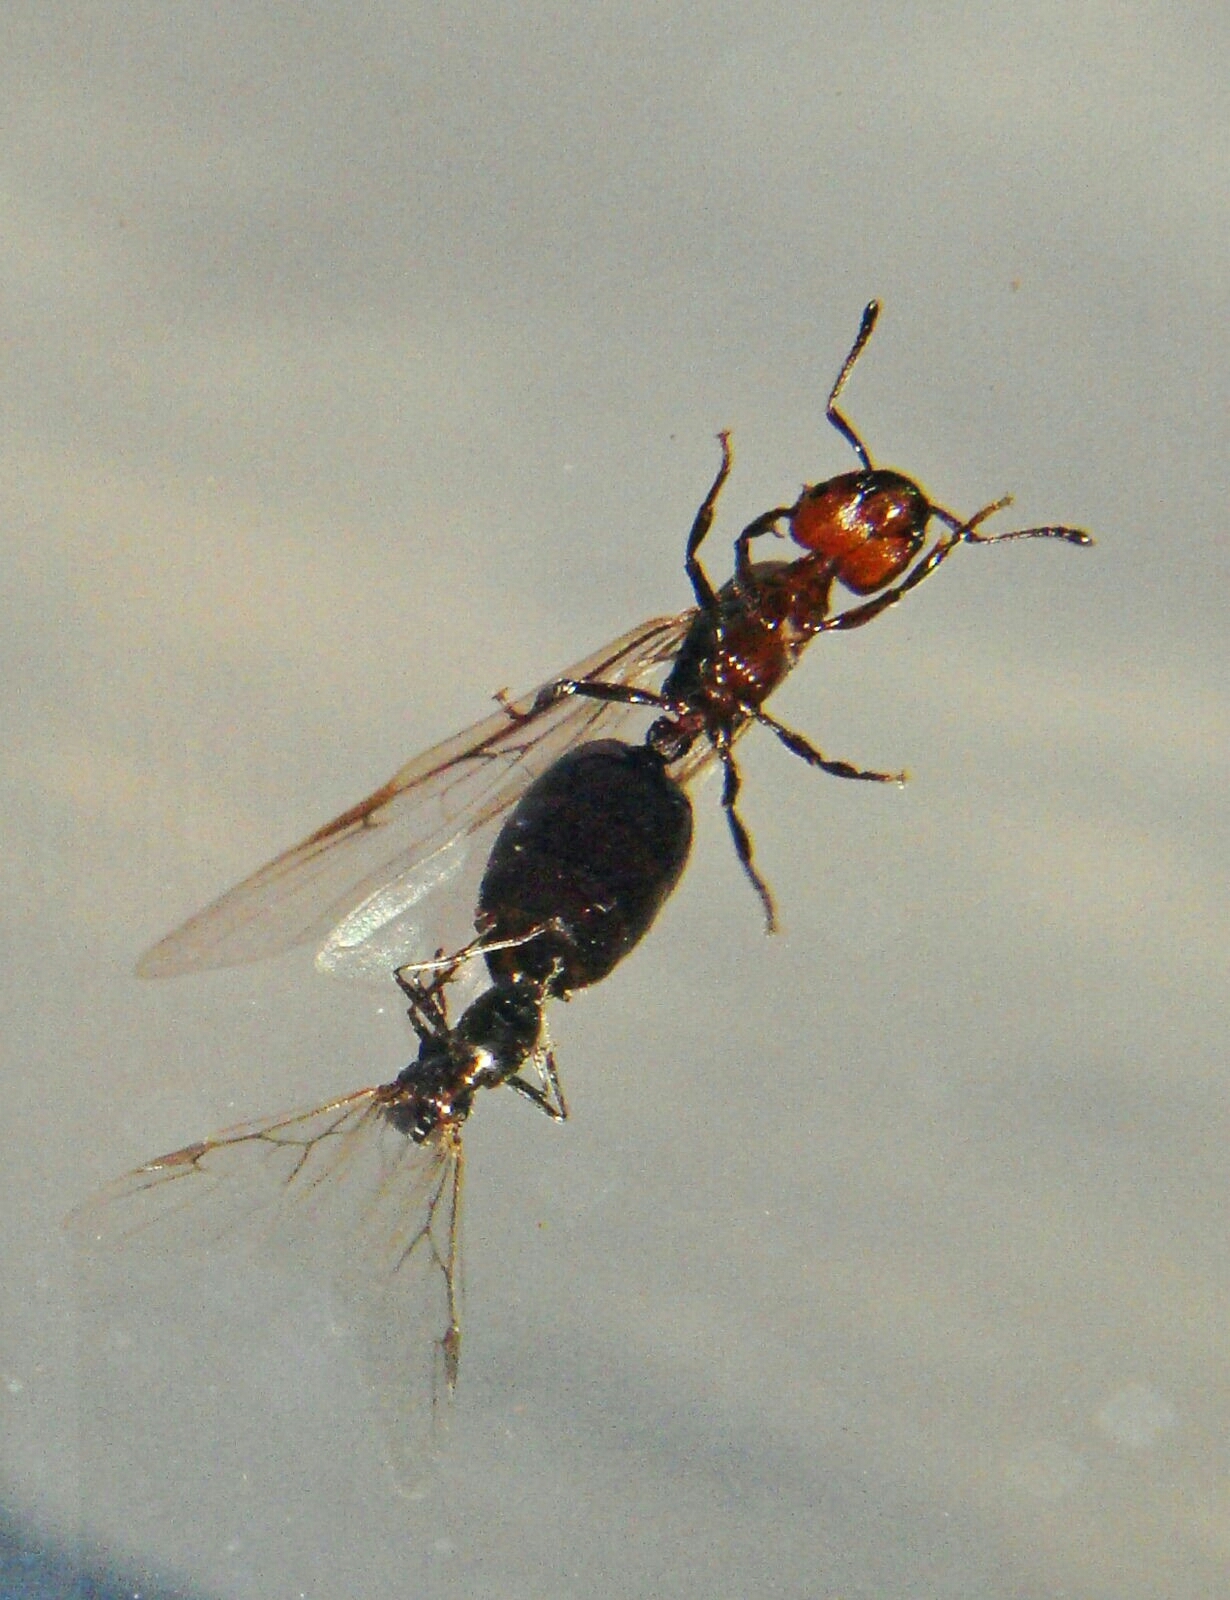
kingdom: Animalia
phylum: Arthropoda
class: Insecta
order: Hymenoptera
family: Formicidae
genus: Crematogaster
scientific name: Crematogaster scutellaris
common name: Fourmi du liège
